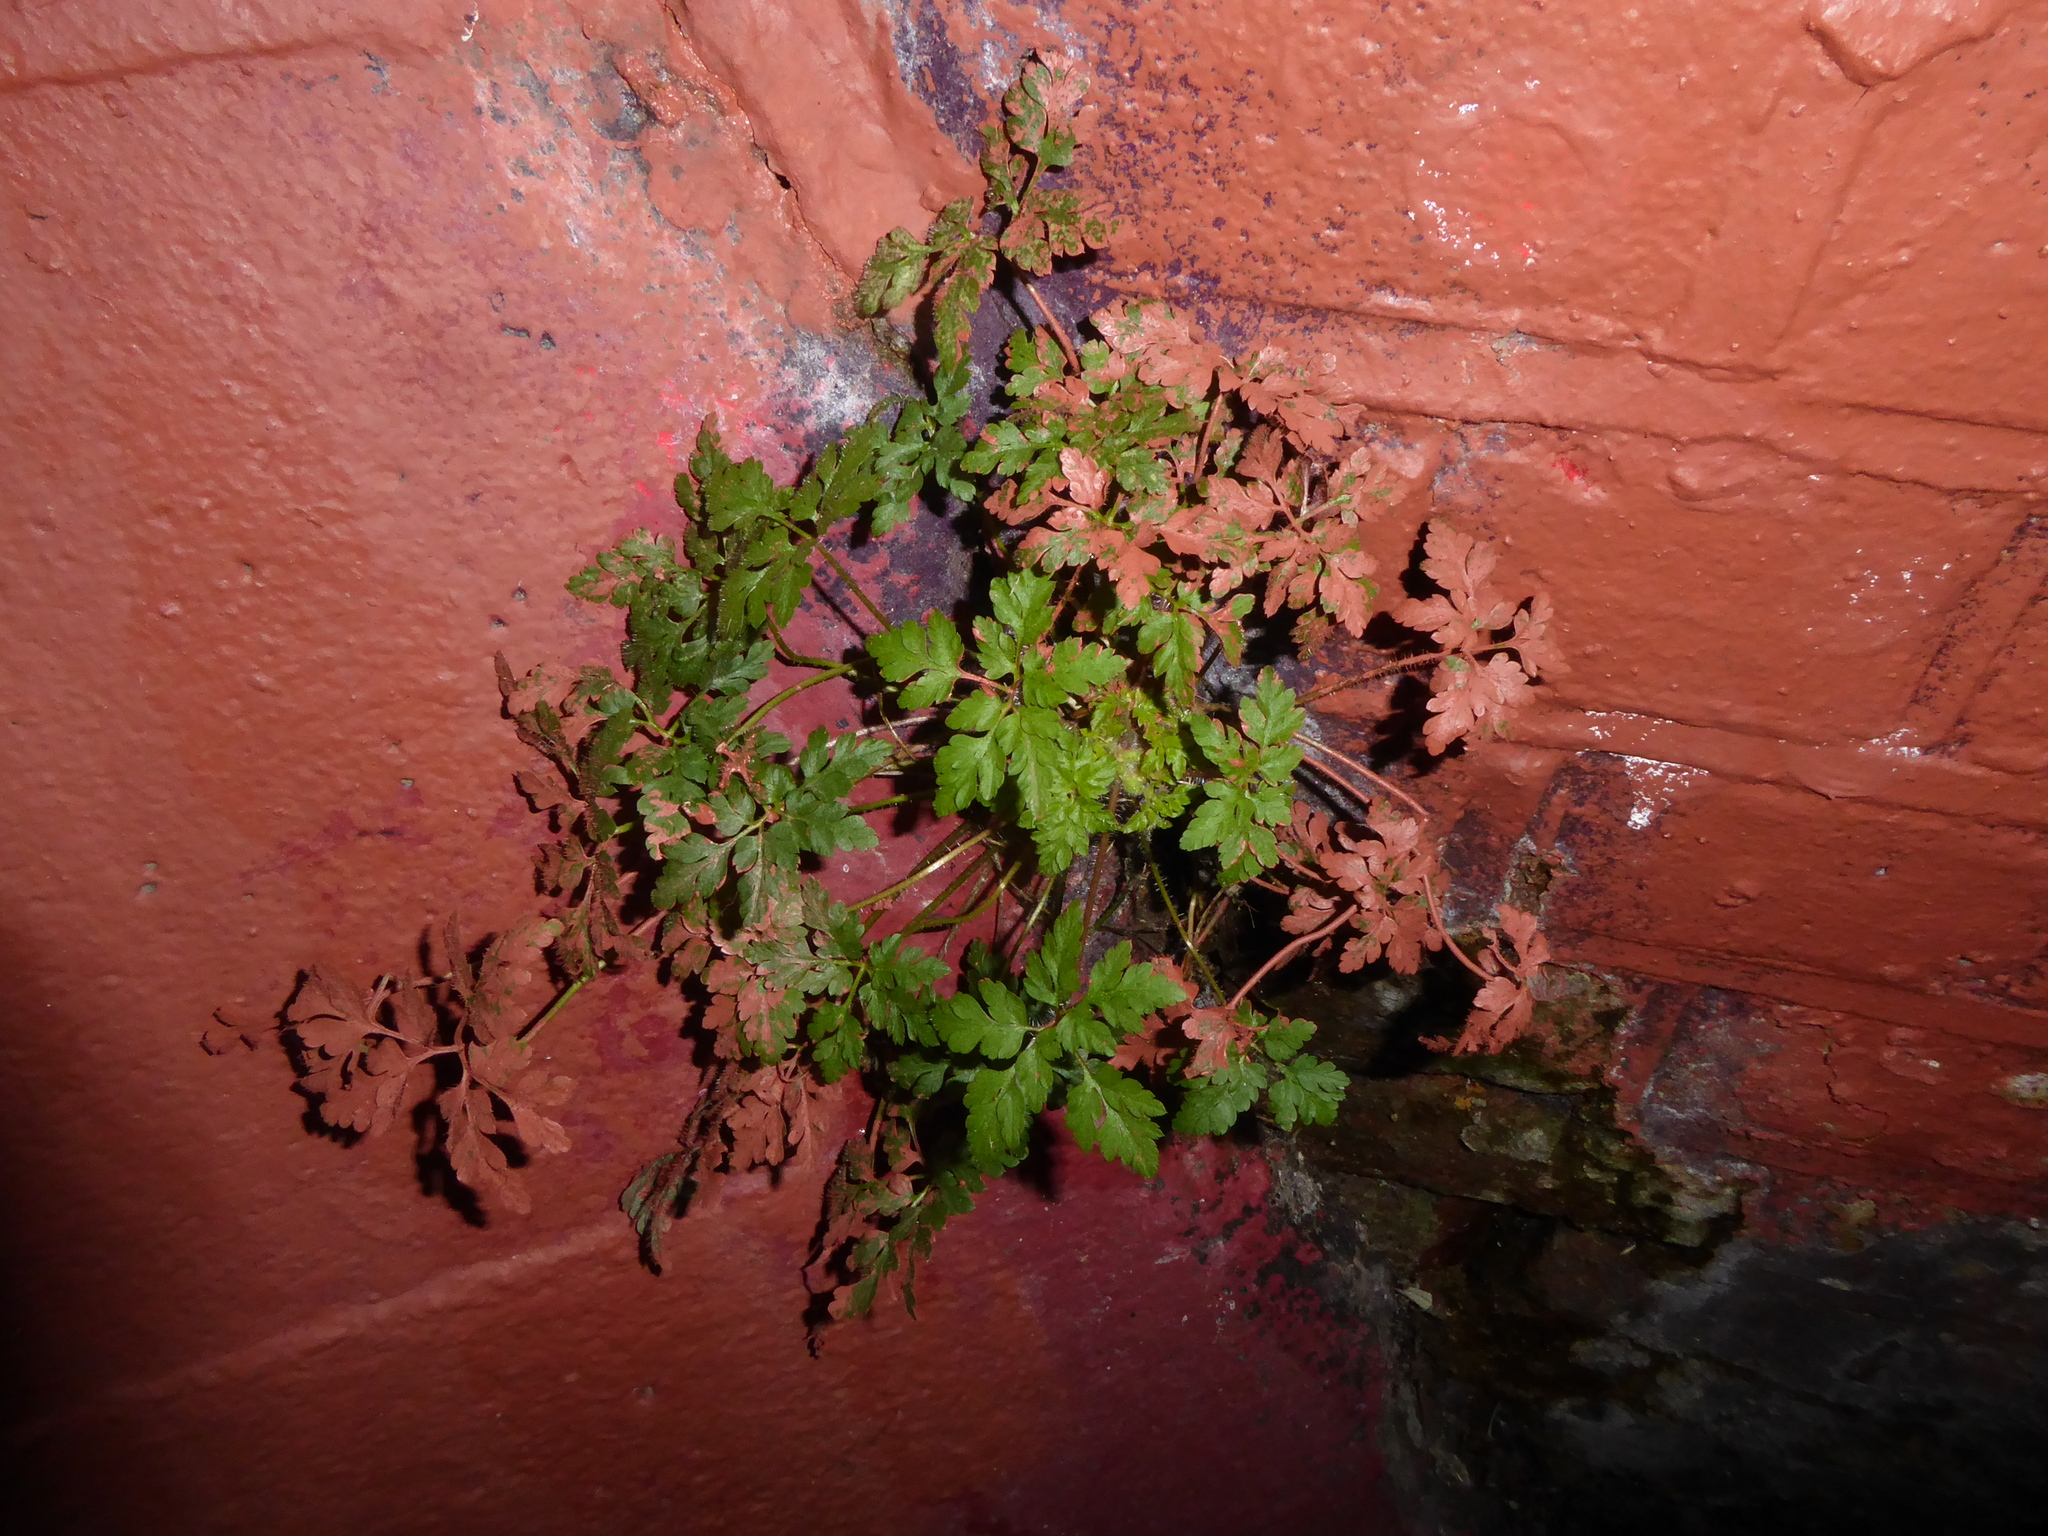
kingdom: Plantae
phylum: Tracheophyta
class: Magnoliopsida
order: Geraniales
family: Geraniaceae
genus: Geranium
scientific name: Geranium robertianum
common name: Herb-robert
